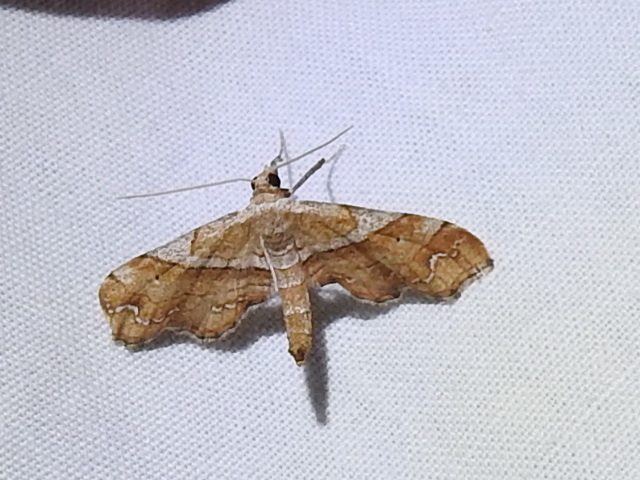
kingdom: Animalia
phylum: Arthropoda
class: Insecta
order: Lepidoptera
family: Geometridae
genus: Odontoptila
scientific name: Odontoptila obrimo
